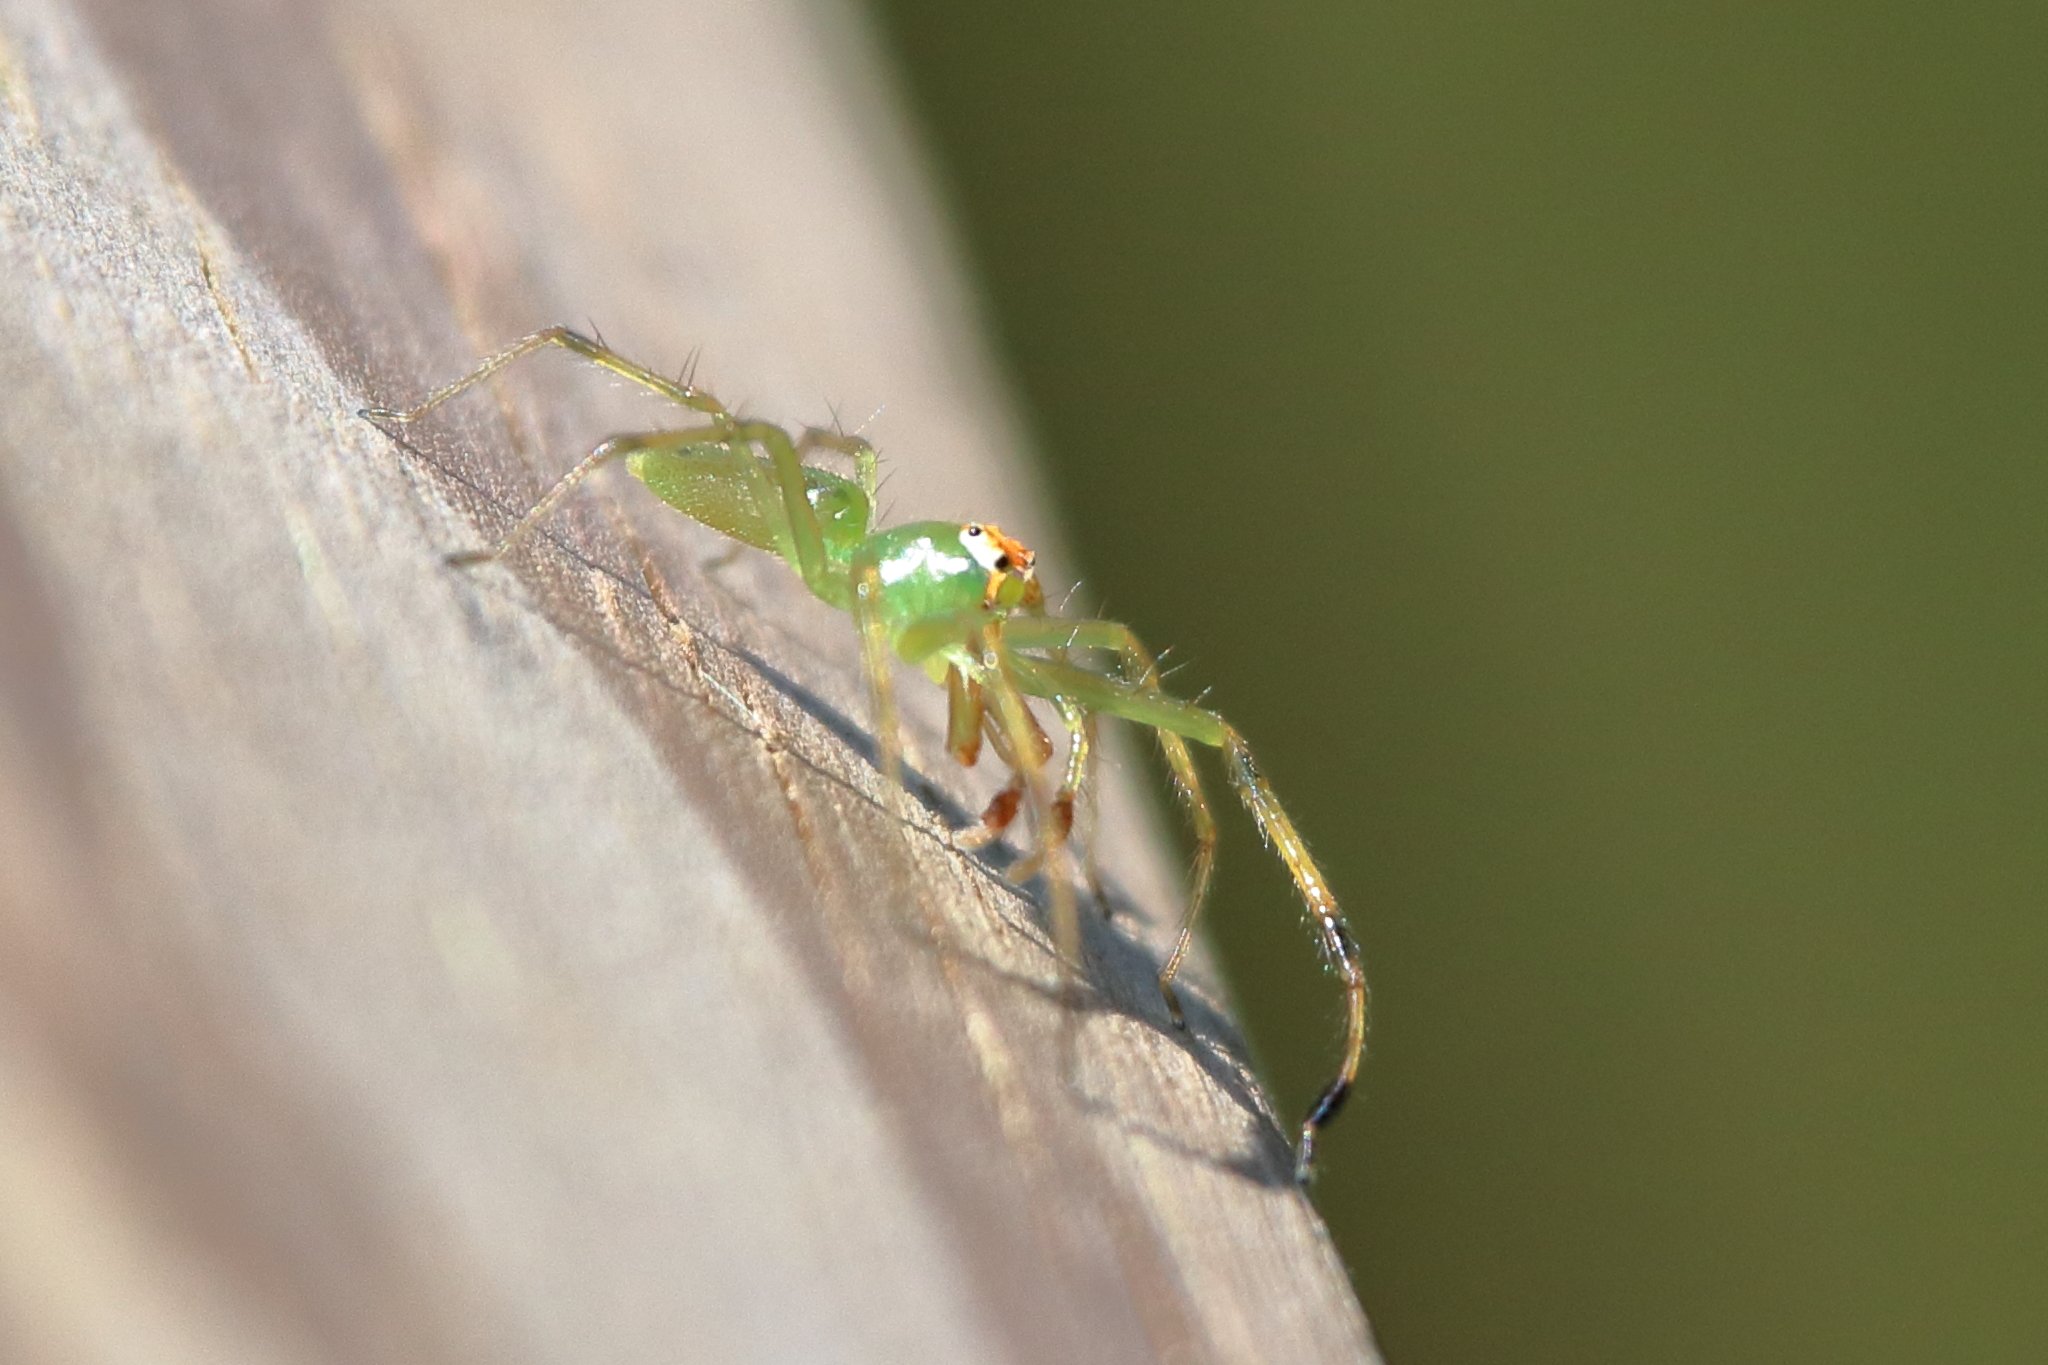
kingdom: Animalia
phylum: Arthropoda
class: Arachnida
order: Araneae
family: Salticidae
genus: Lyssomanes
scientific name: Lyssomanes viridis
